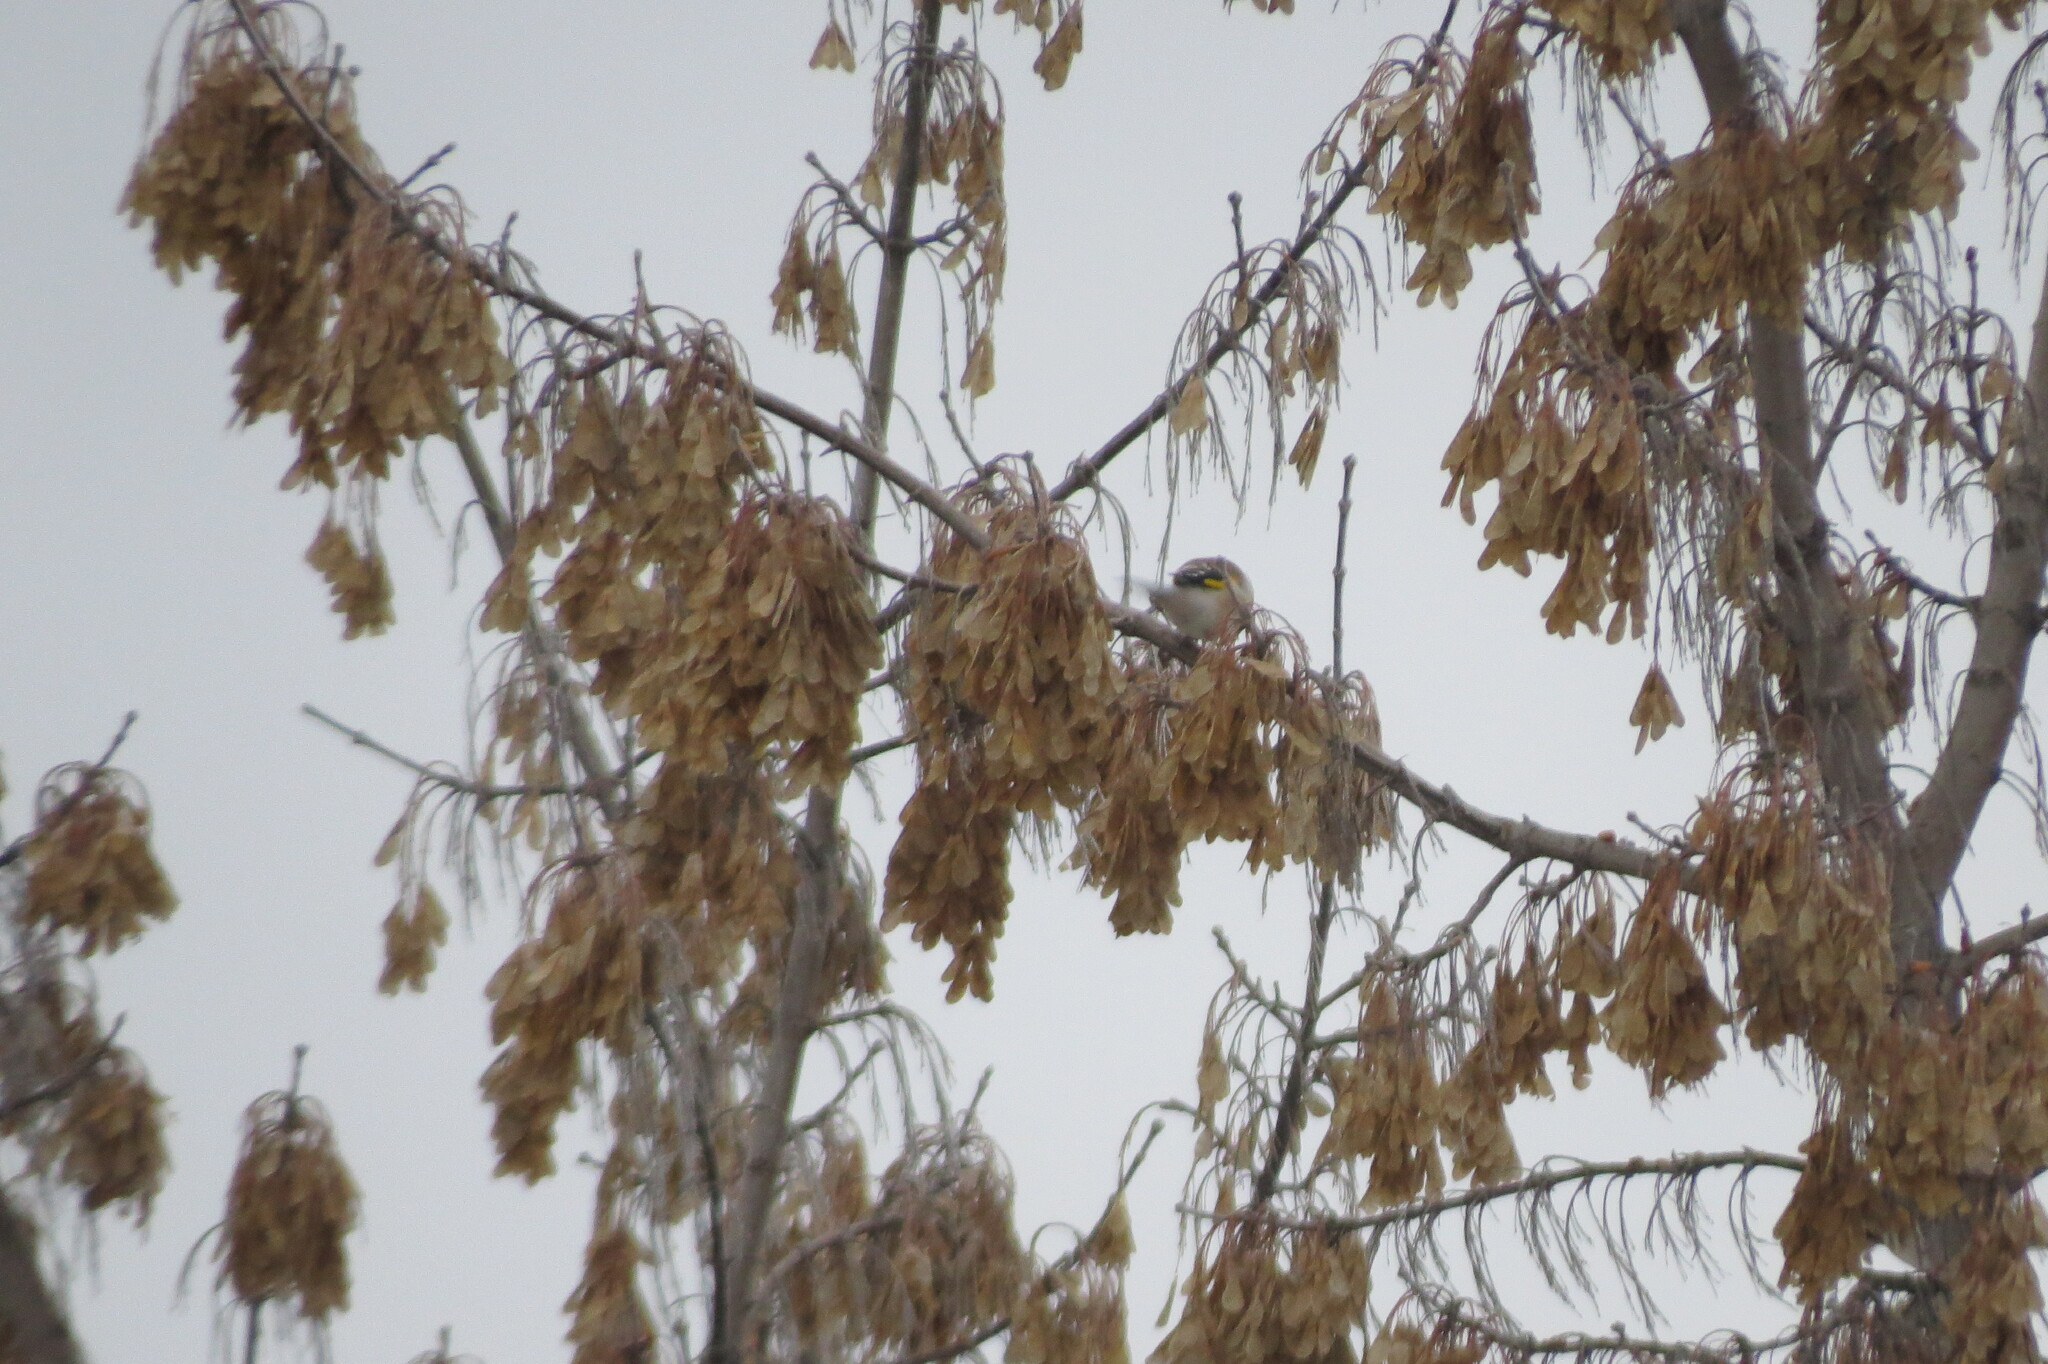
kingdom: Animalia
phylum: Chordata
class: Aves
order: Passeriformes
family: Fringillidae
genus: Carduelis
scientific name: Carduelis carduelis
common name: European goldfinch
